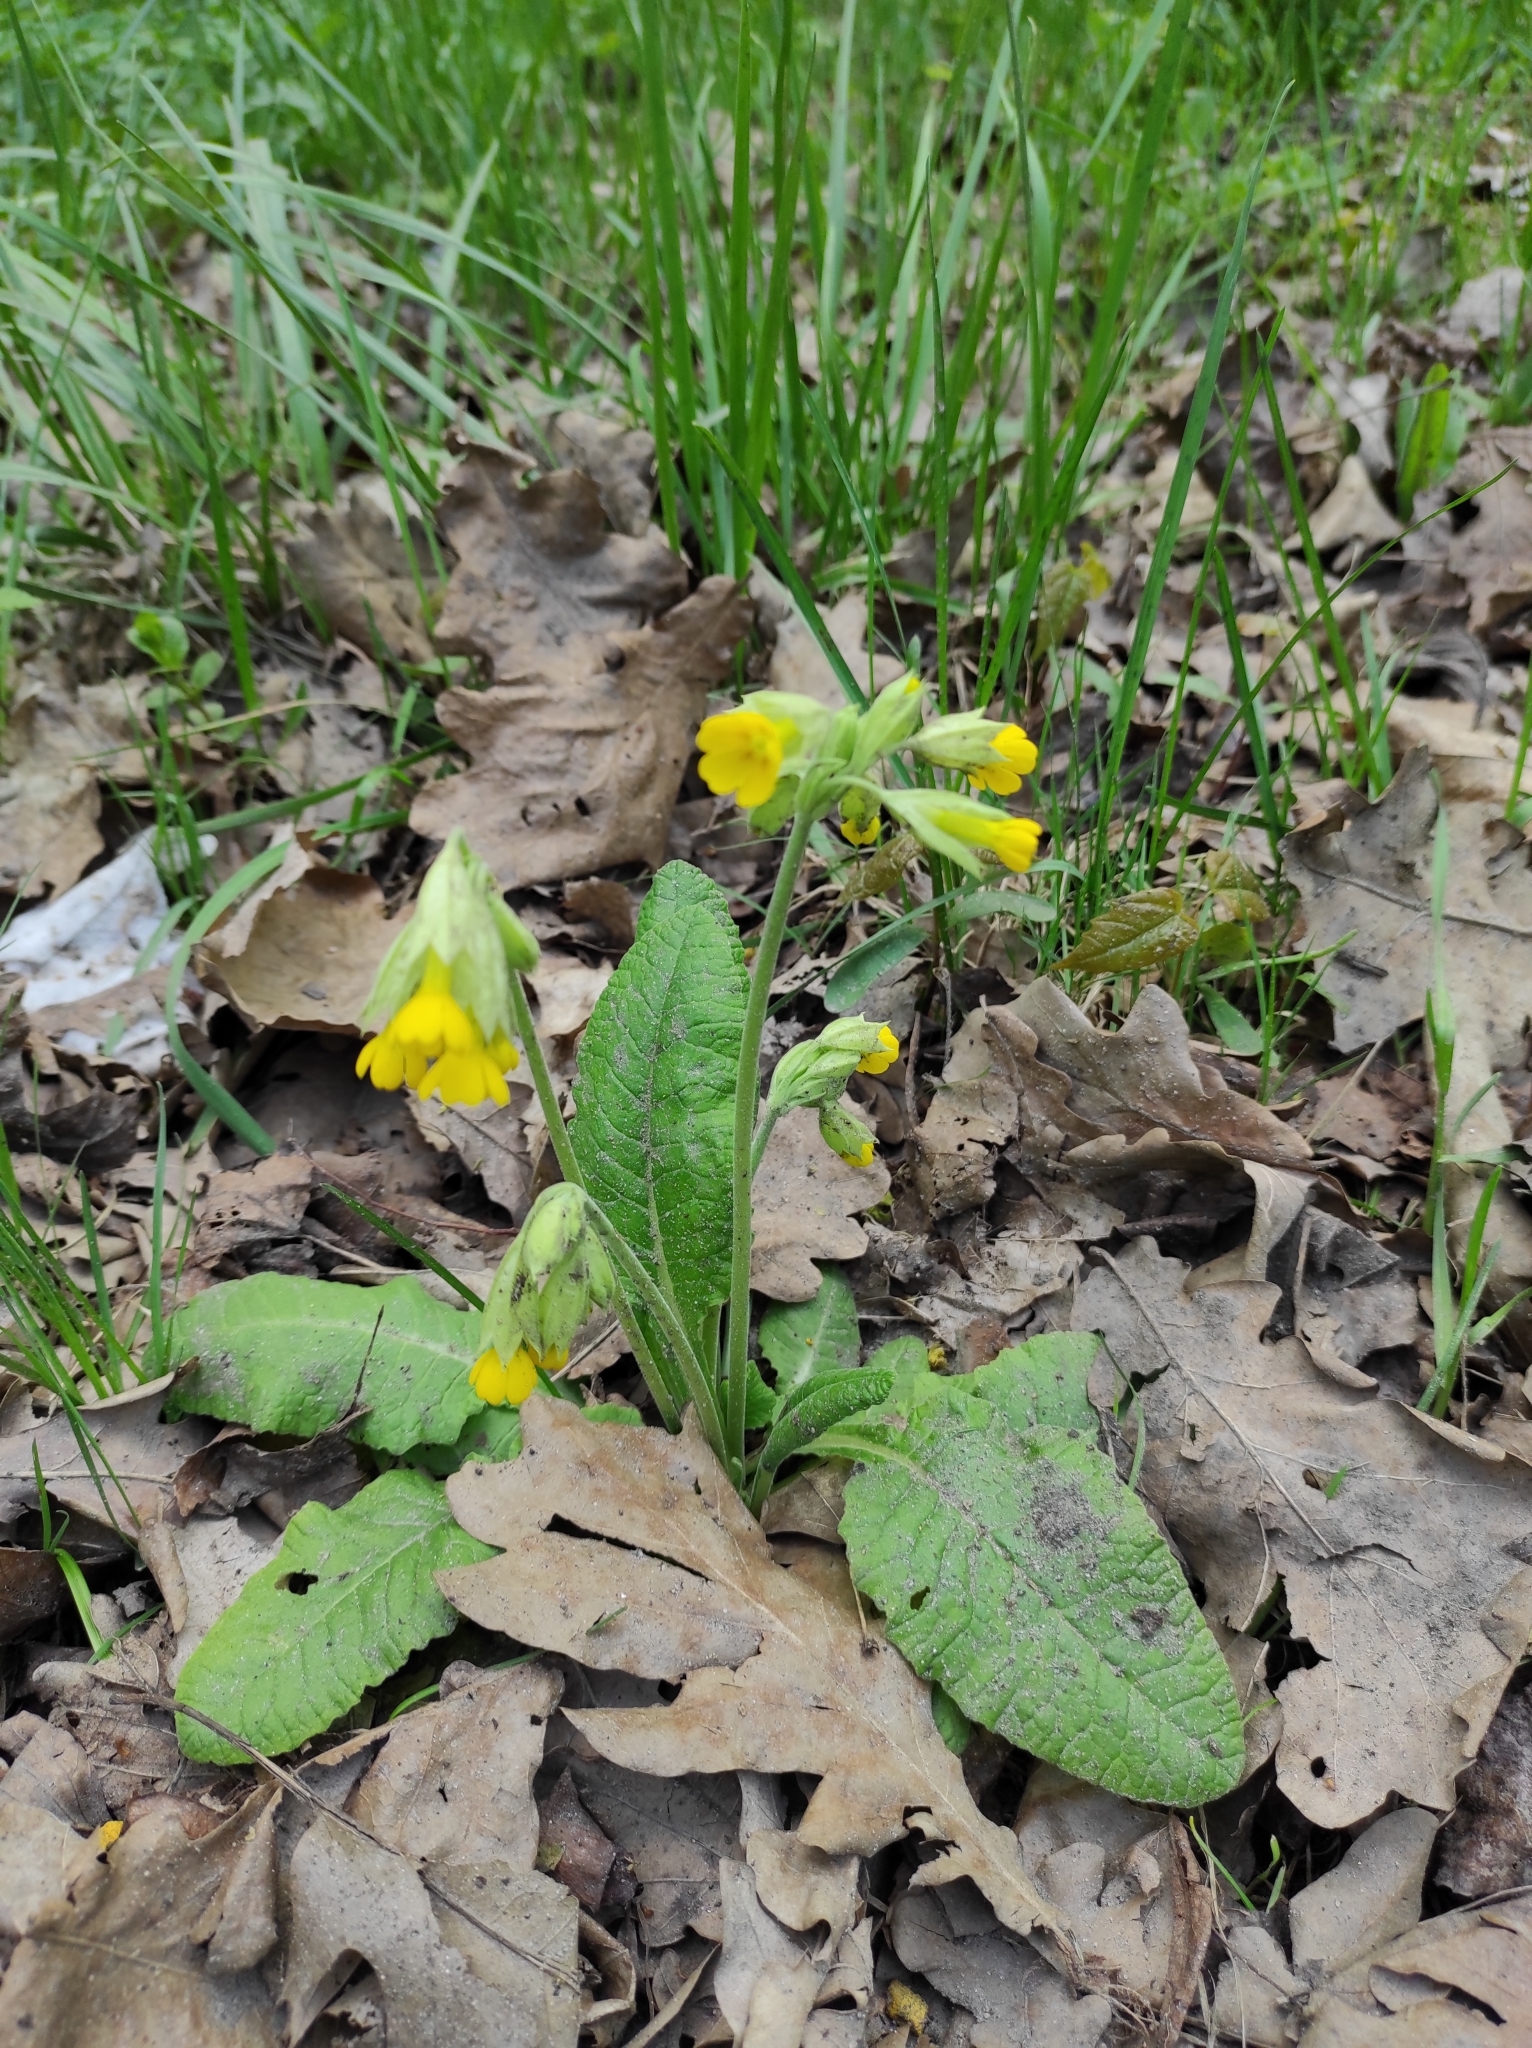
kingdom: Plantae
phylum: Tracheophyta
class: Magnoliopsida
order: Ericales
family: Primulaceae
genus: Primula
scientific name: Primula veris
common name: Cowslip
